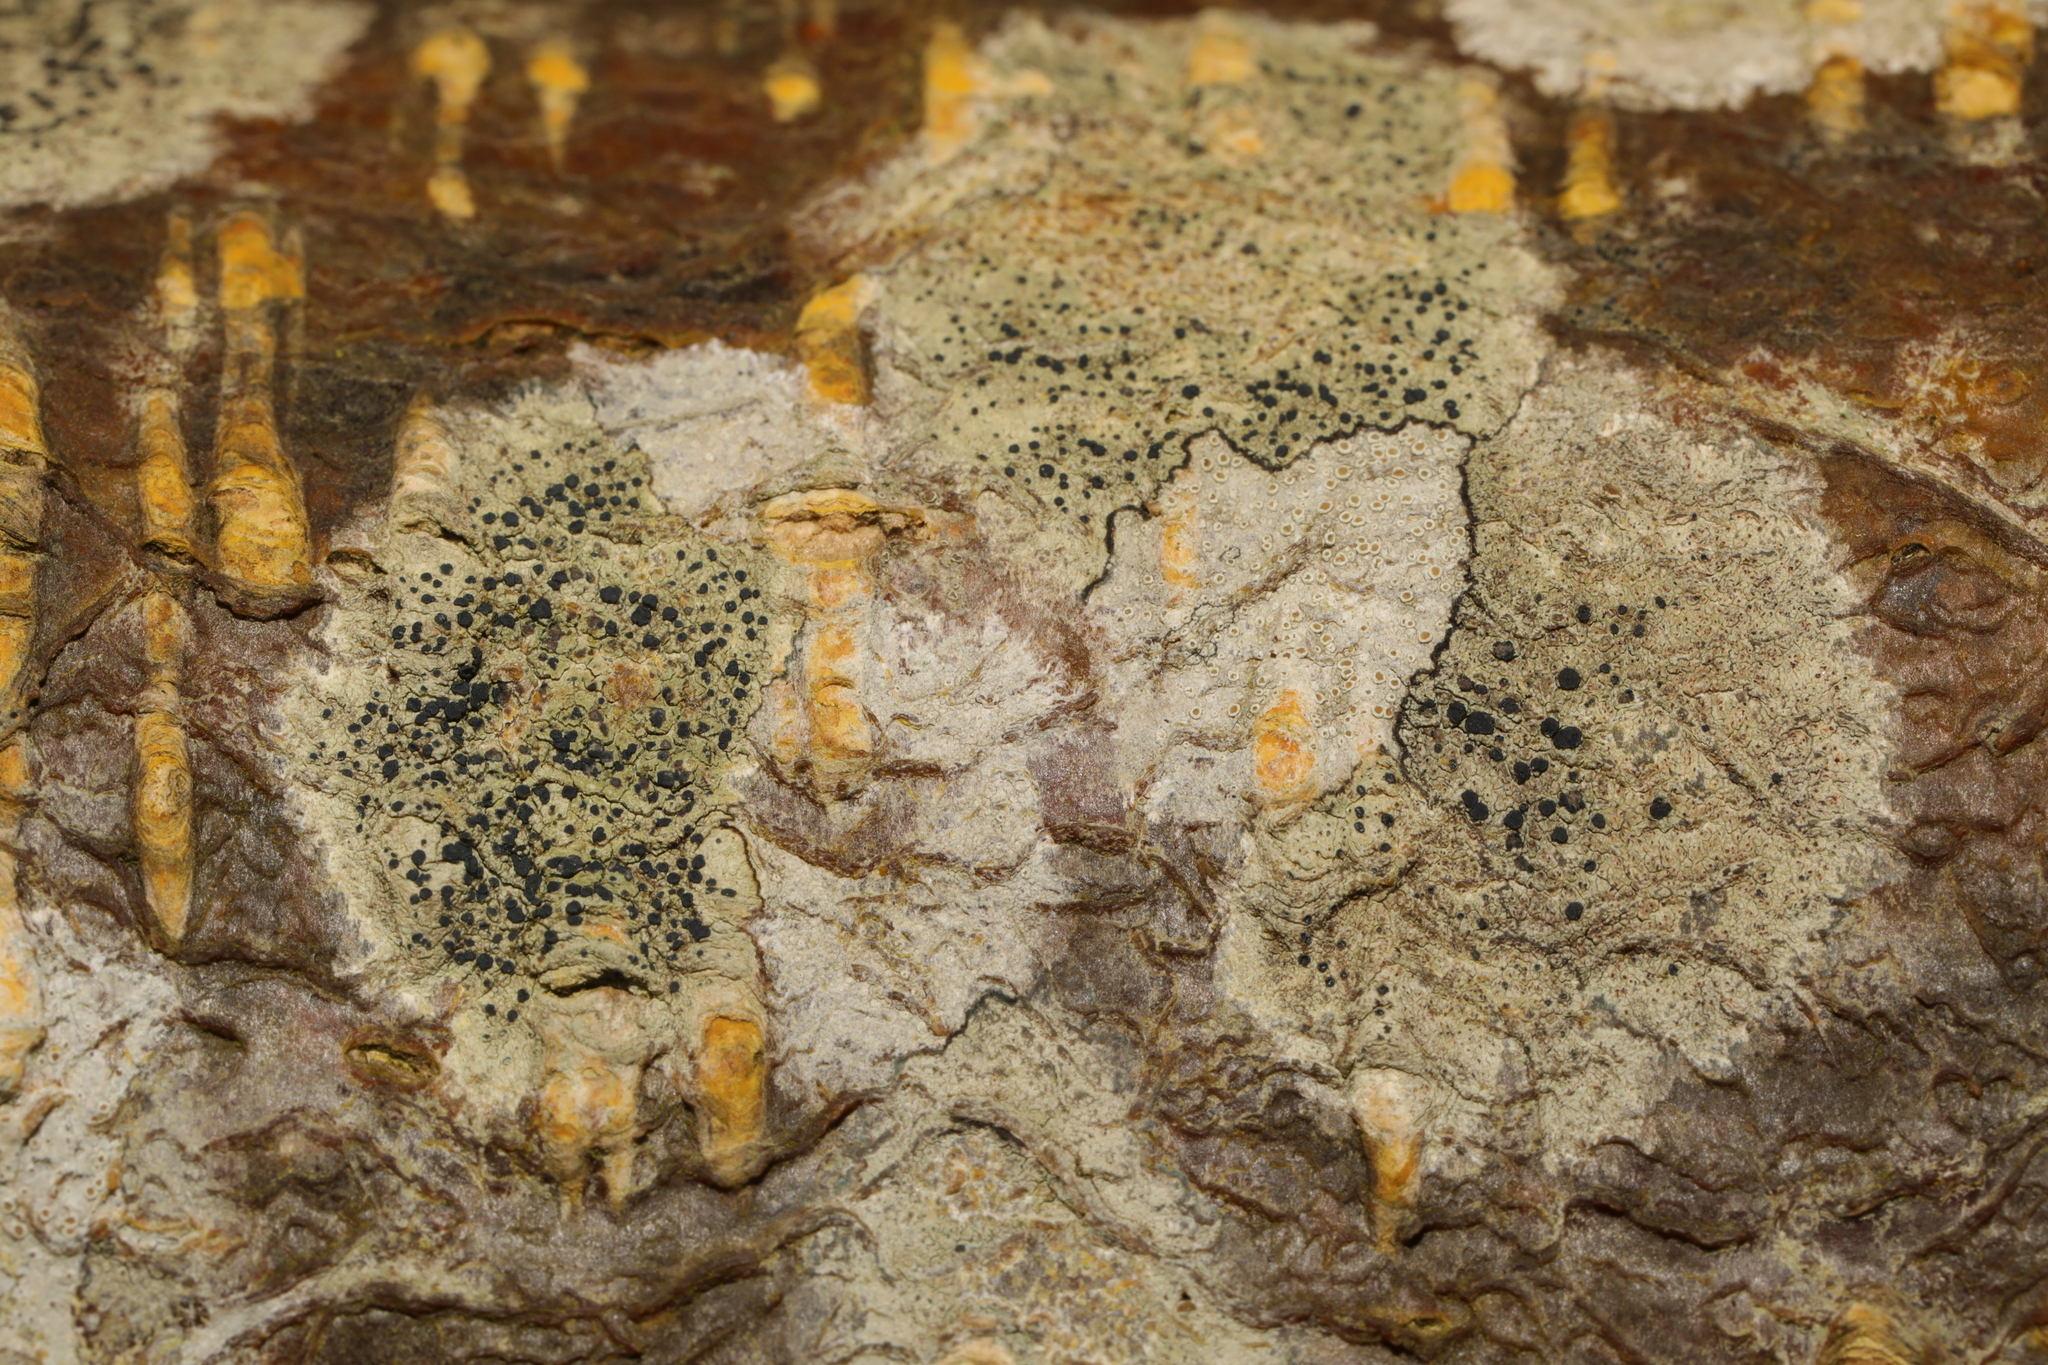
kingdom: Fungi
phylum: Ascomycota
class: Lecanoromycetes
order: Lecanorales
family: Lecanoraceae
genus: Lecidella
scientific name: Lecidella elaeochroma
